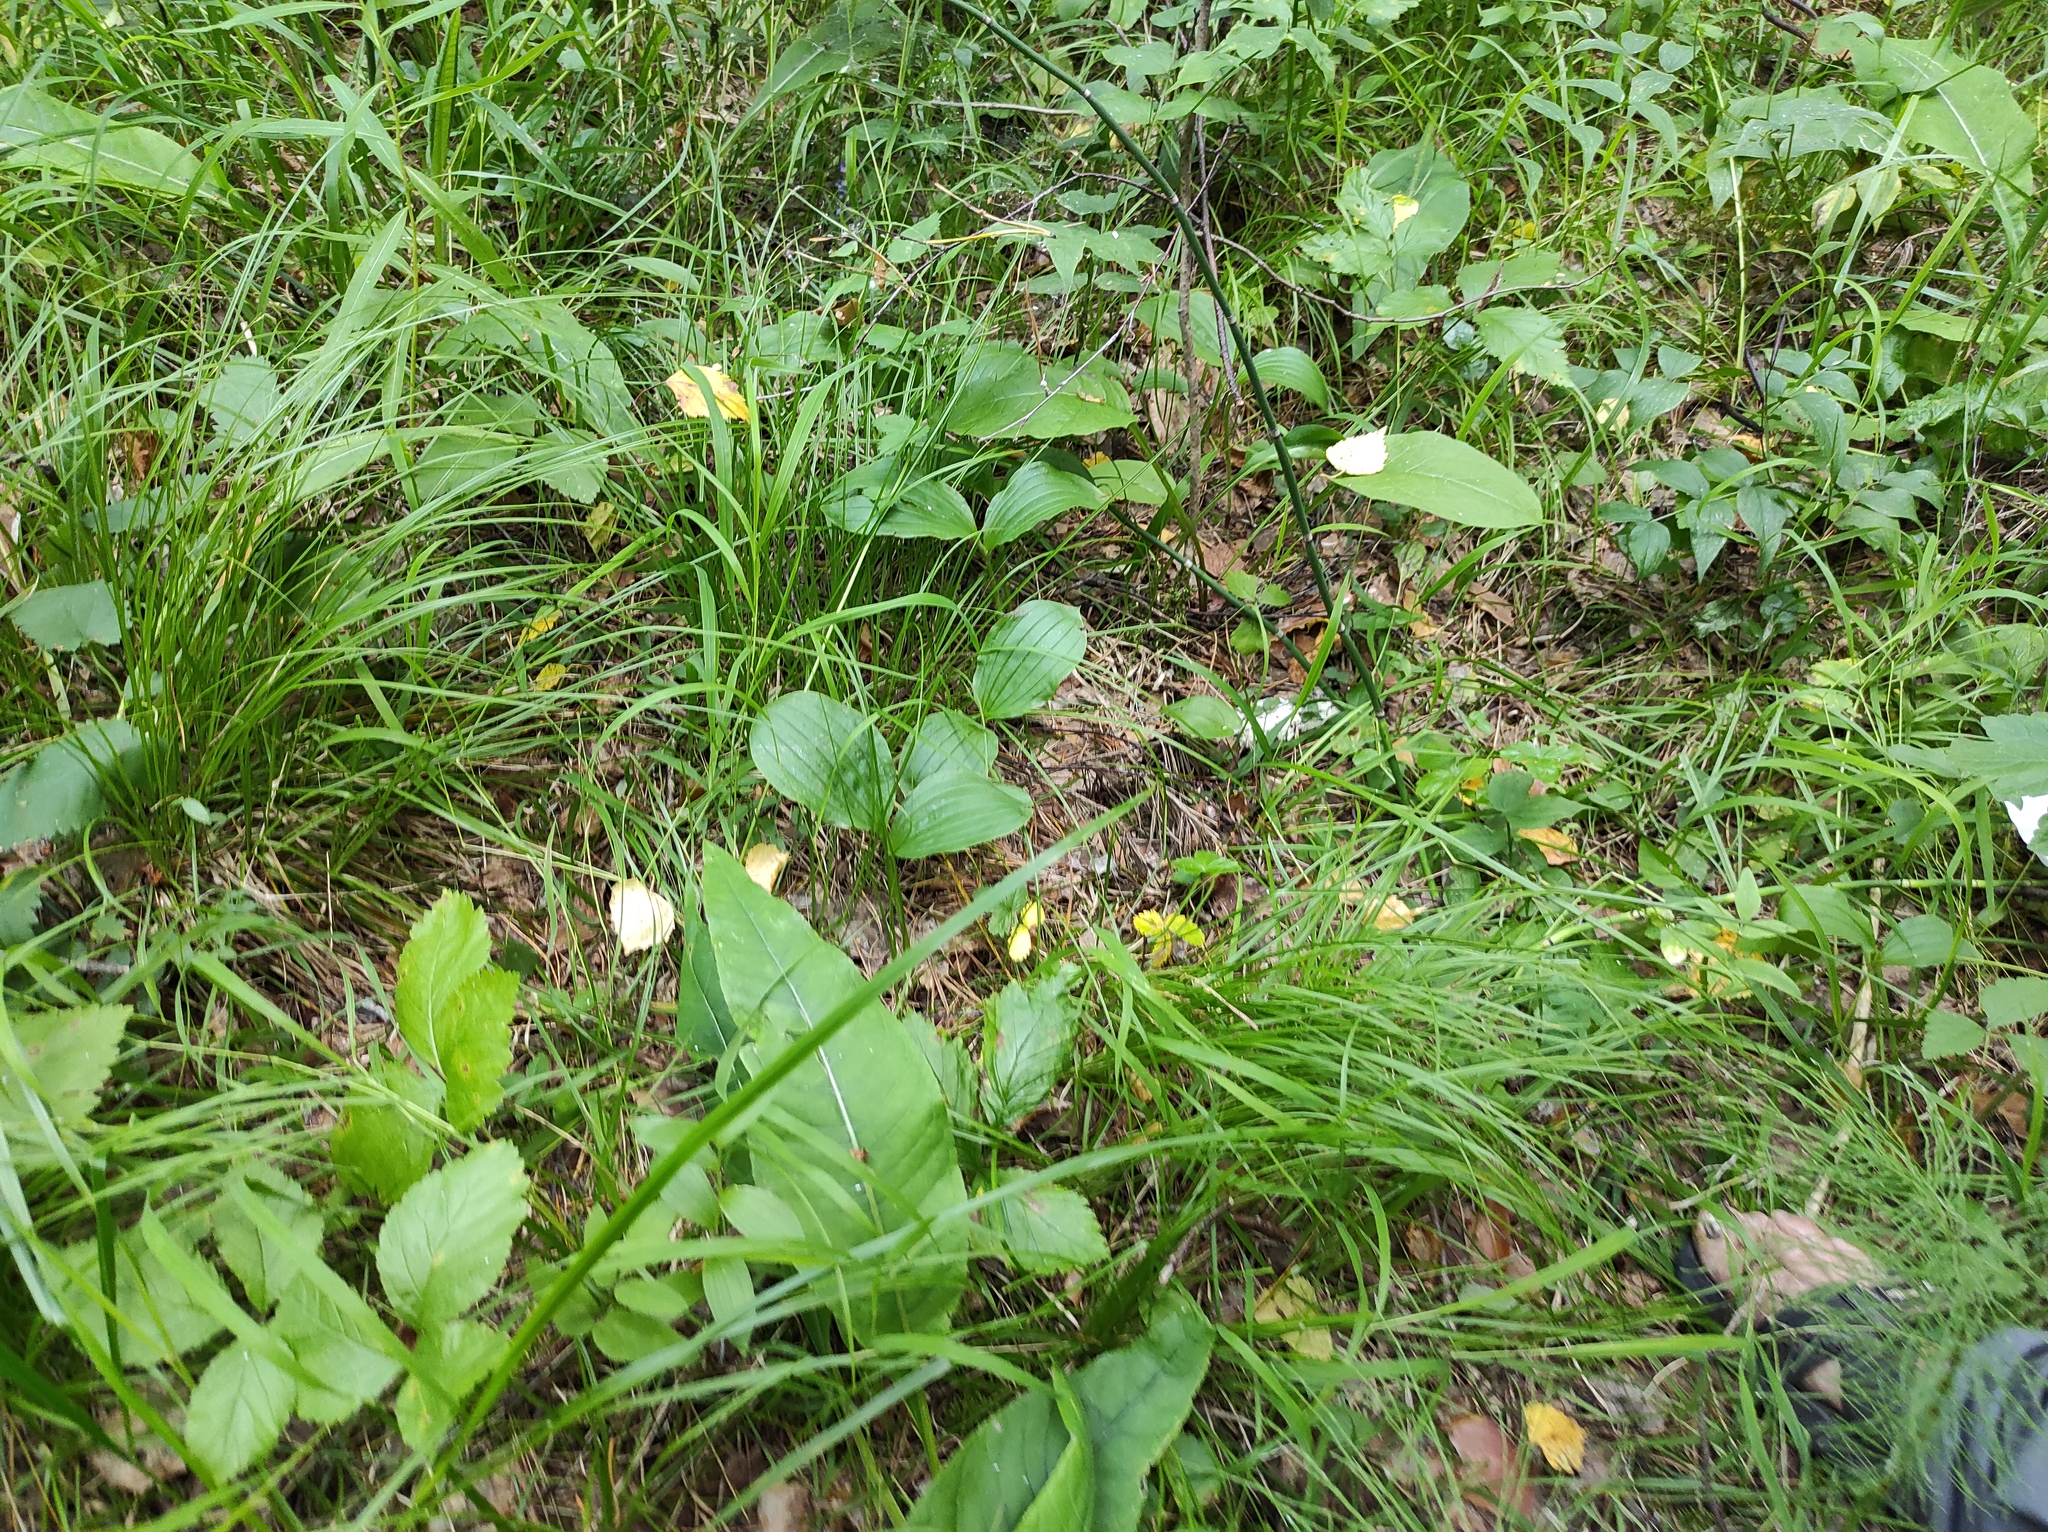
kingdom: Plantae
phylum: Tracheophyta
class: Liliopsida
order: Asparagales
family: Orchidaceae
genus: Cypripedium
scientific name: Cypripedium guttatum
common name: Pink lady slipper
